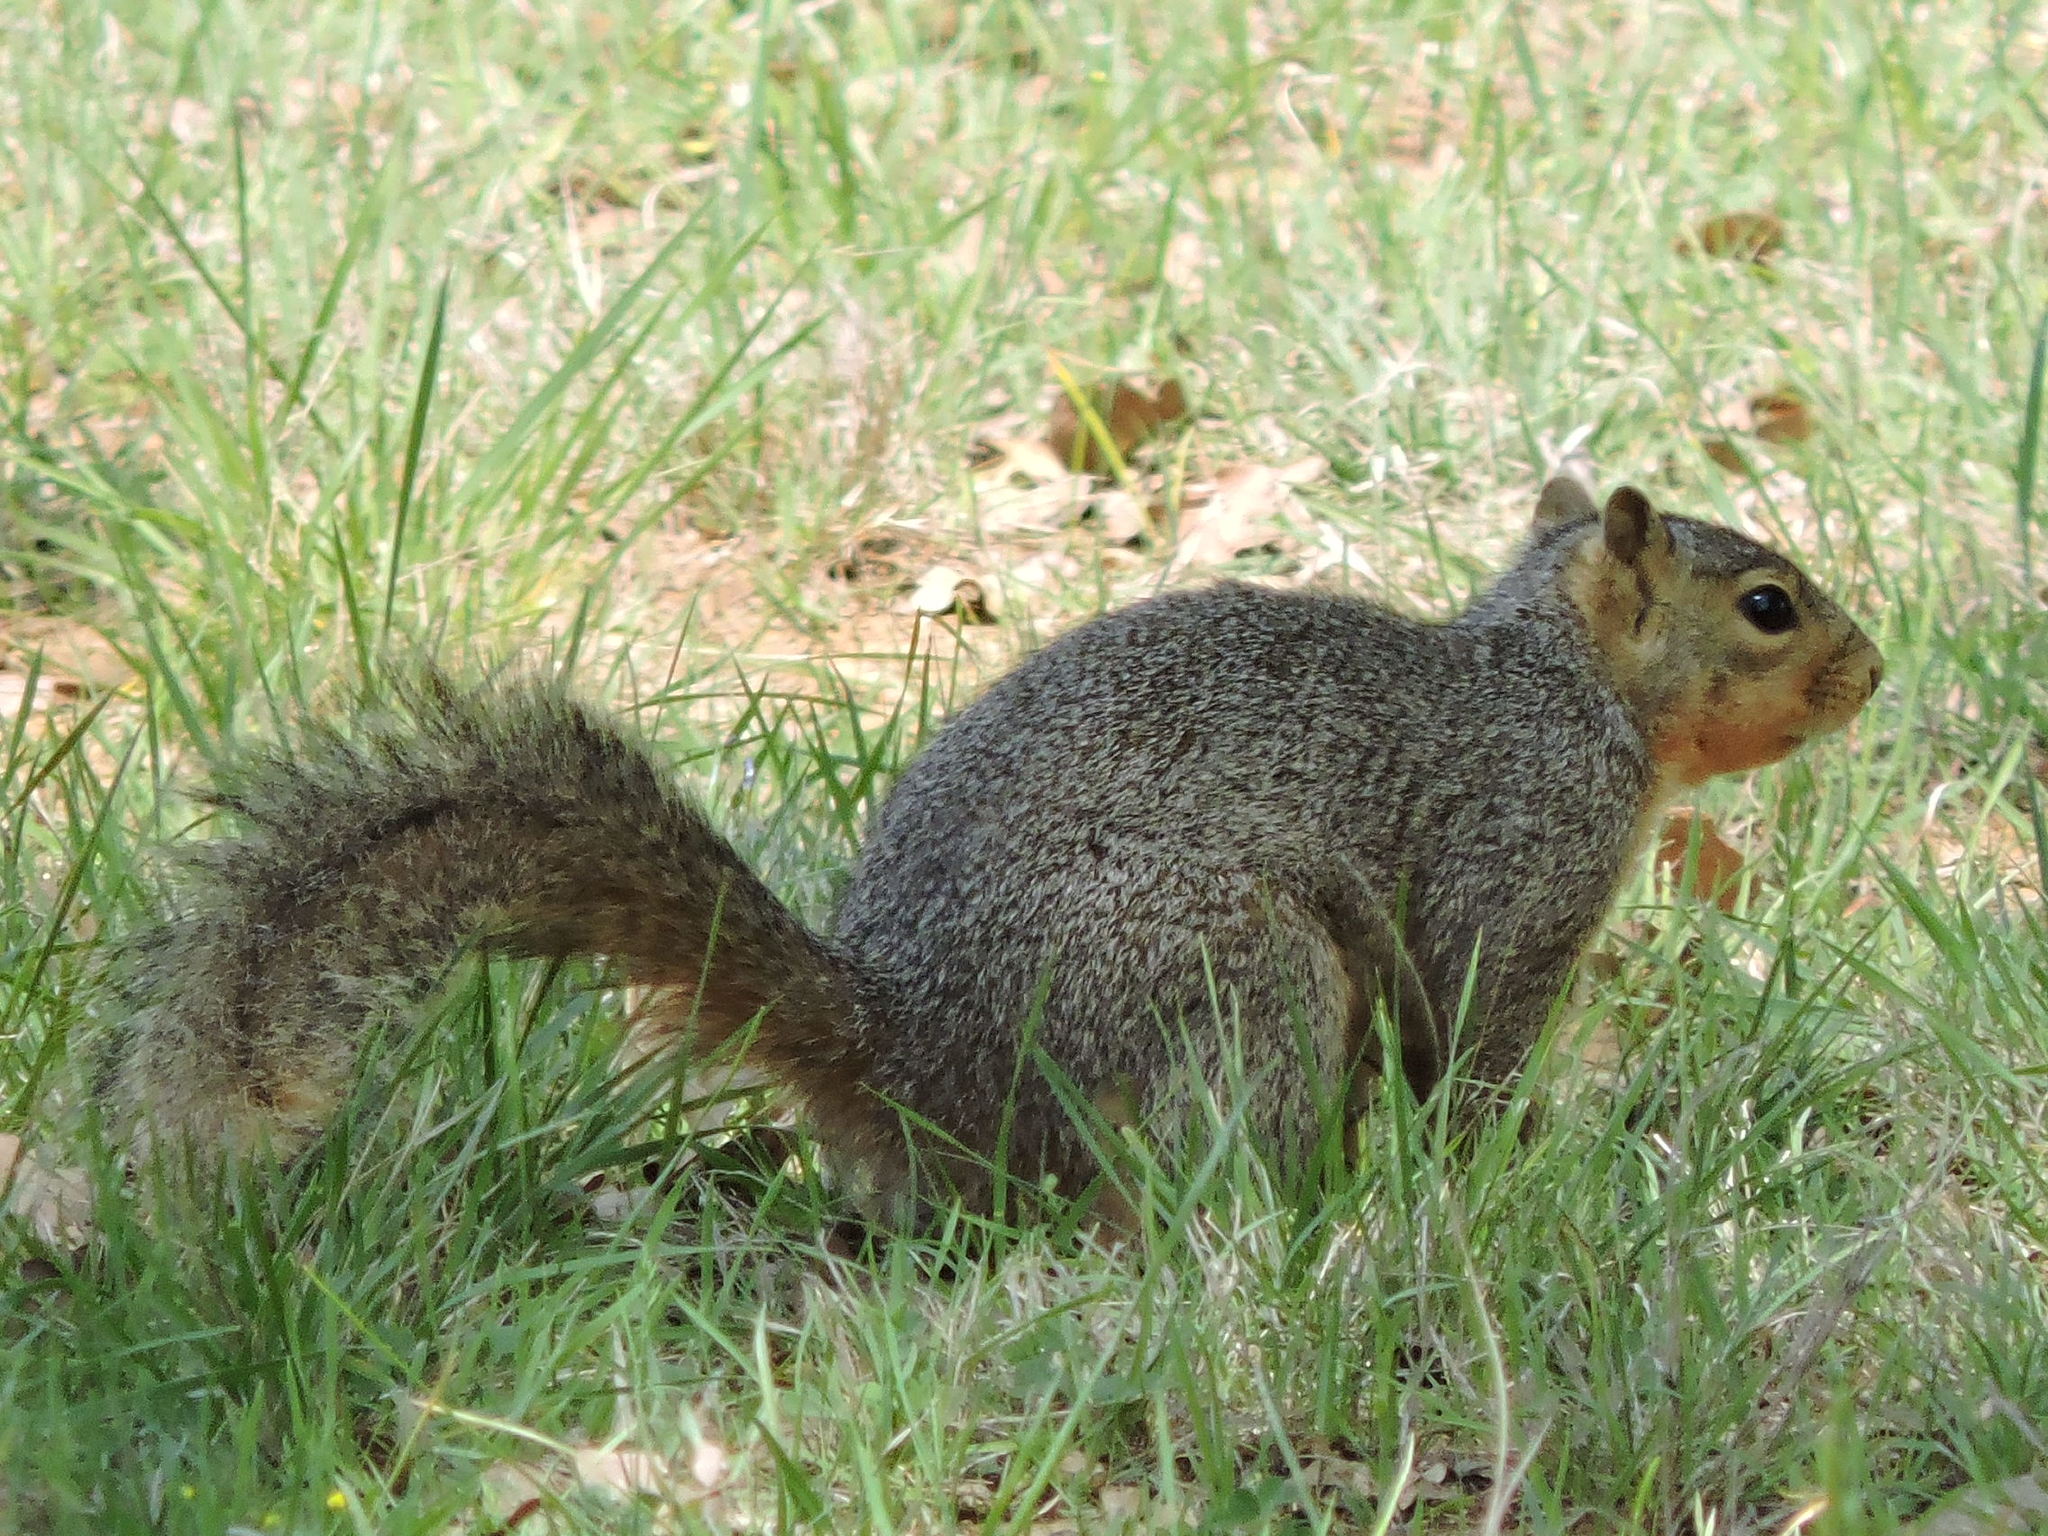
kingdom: Animalia
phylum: Chordata
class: Mammalia
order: Rodentia
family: Sciuridae
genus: Sciurus
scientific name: Sciurus niger
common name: Fox squirrel
